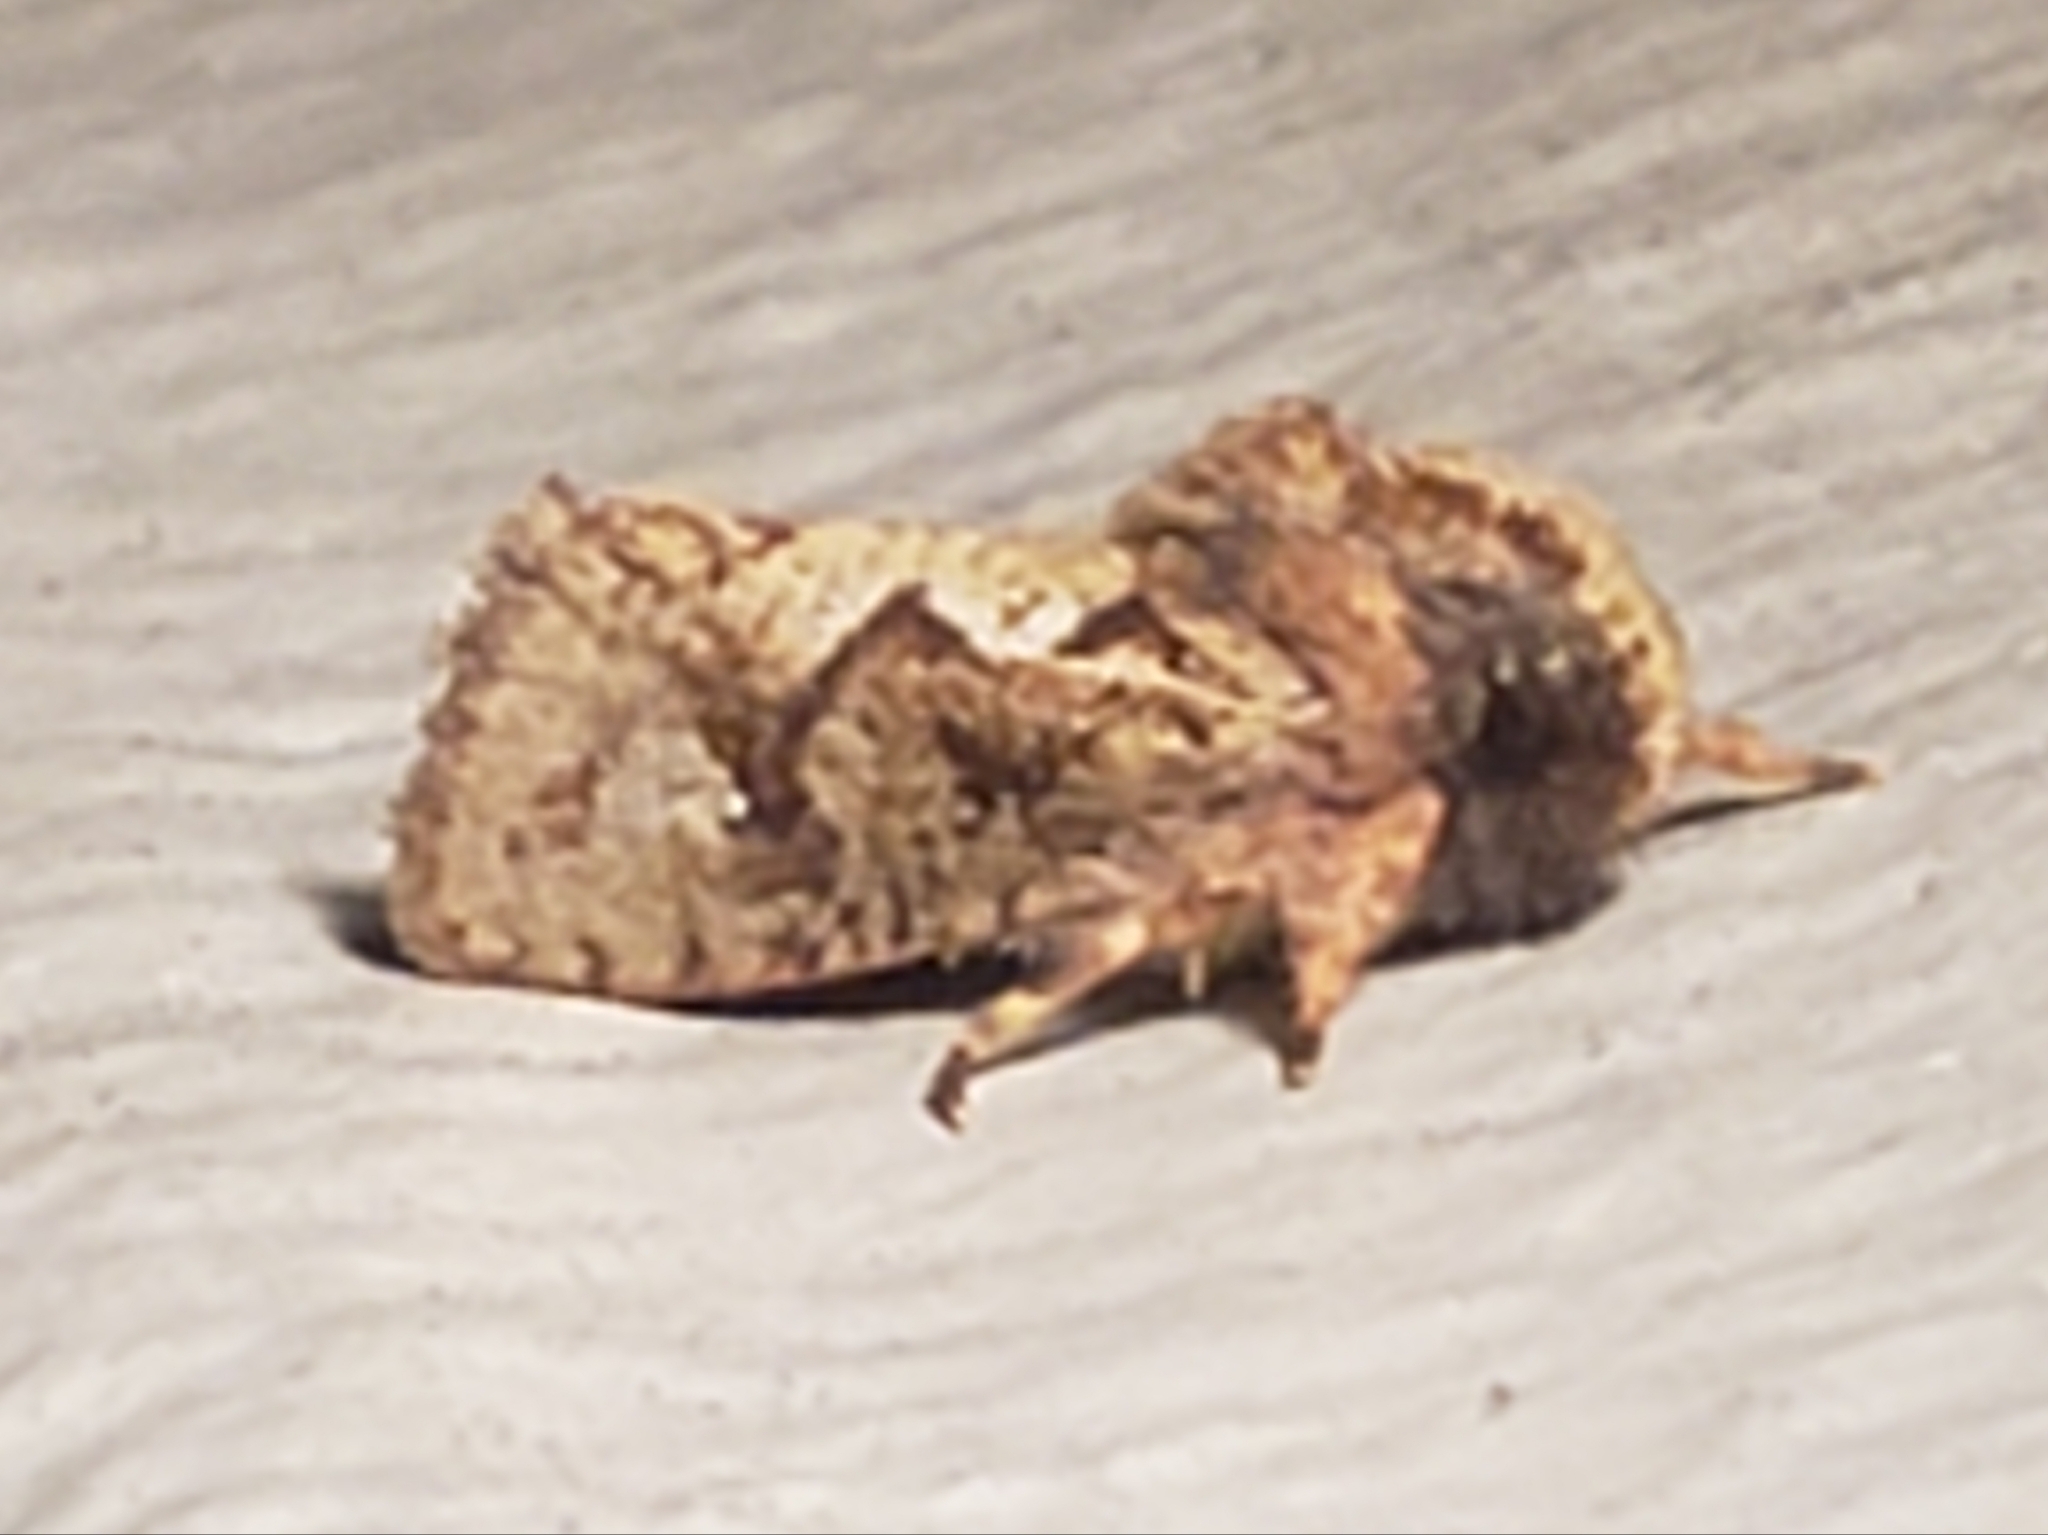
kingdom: Animalia
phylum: Arthropoda
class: Insecta
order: Lepidoptera
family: Tineidae
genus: Acrolophus
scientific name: Acrolophus walsinghami
